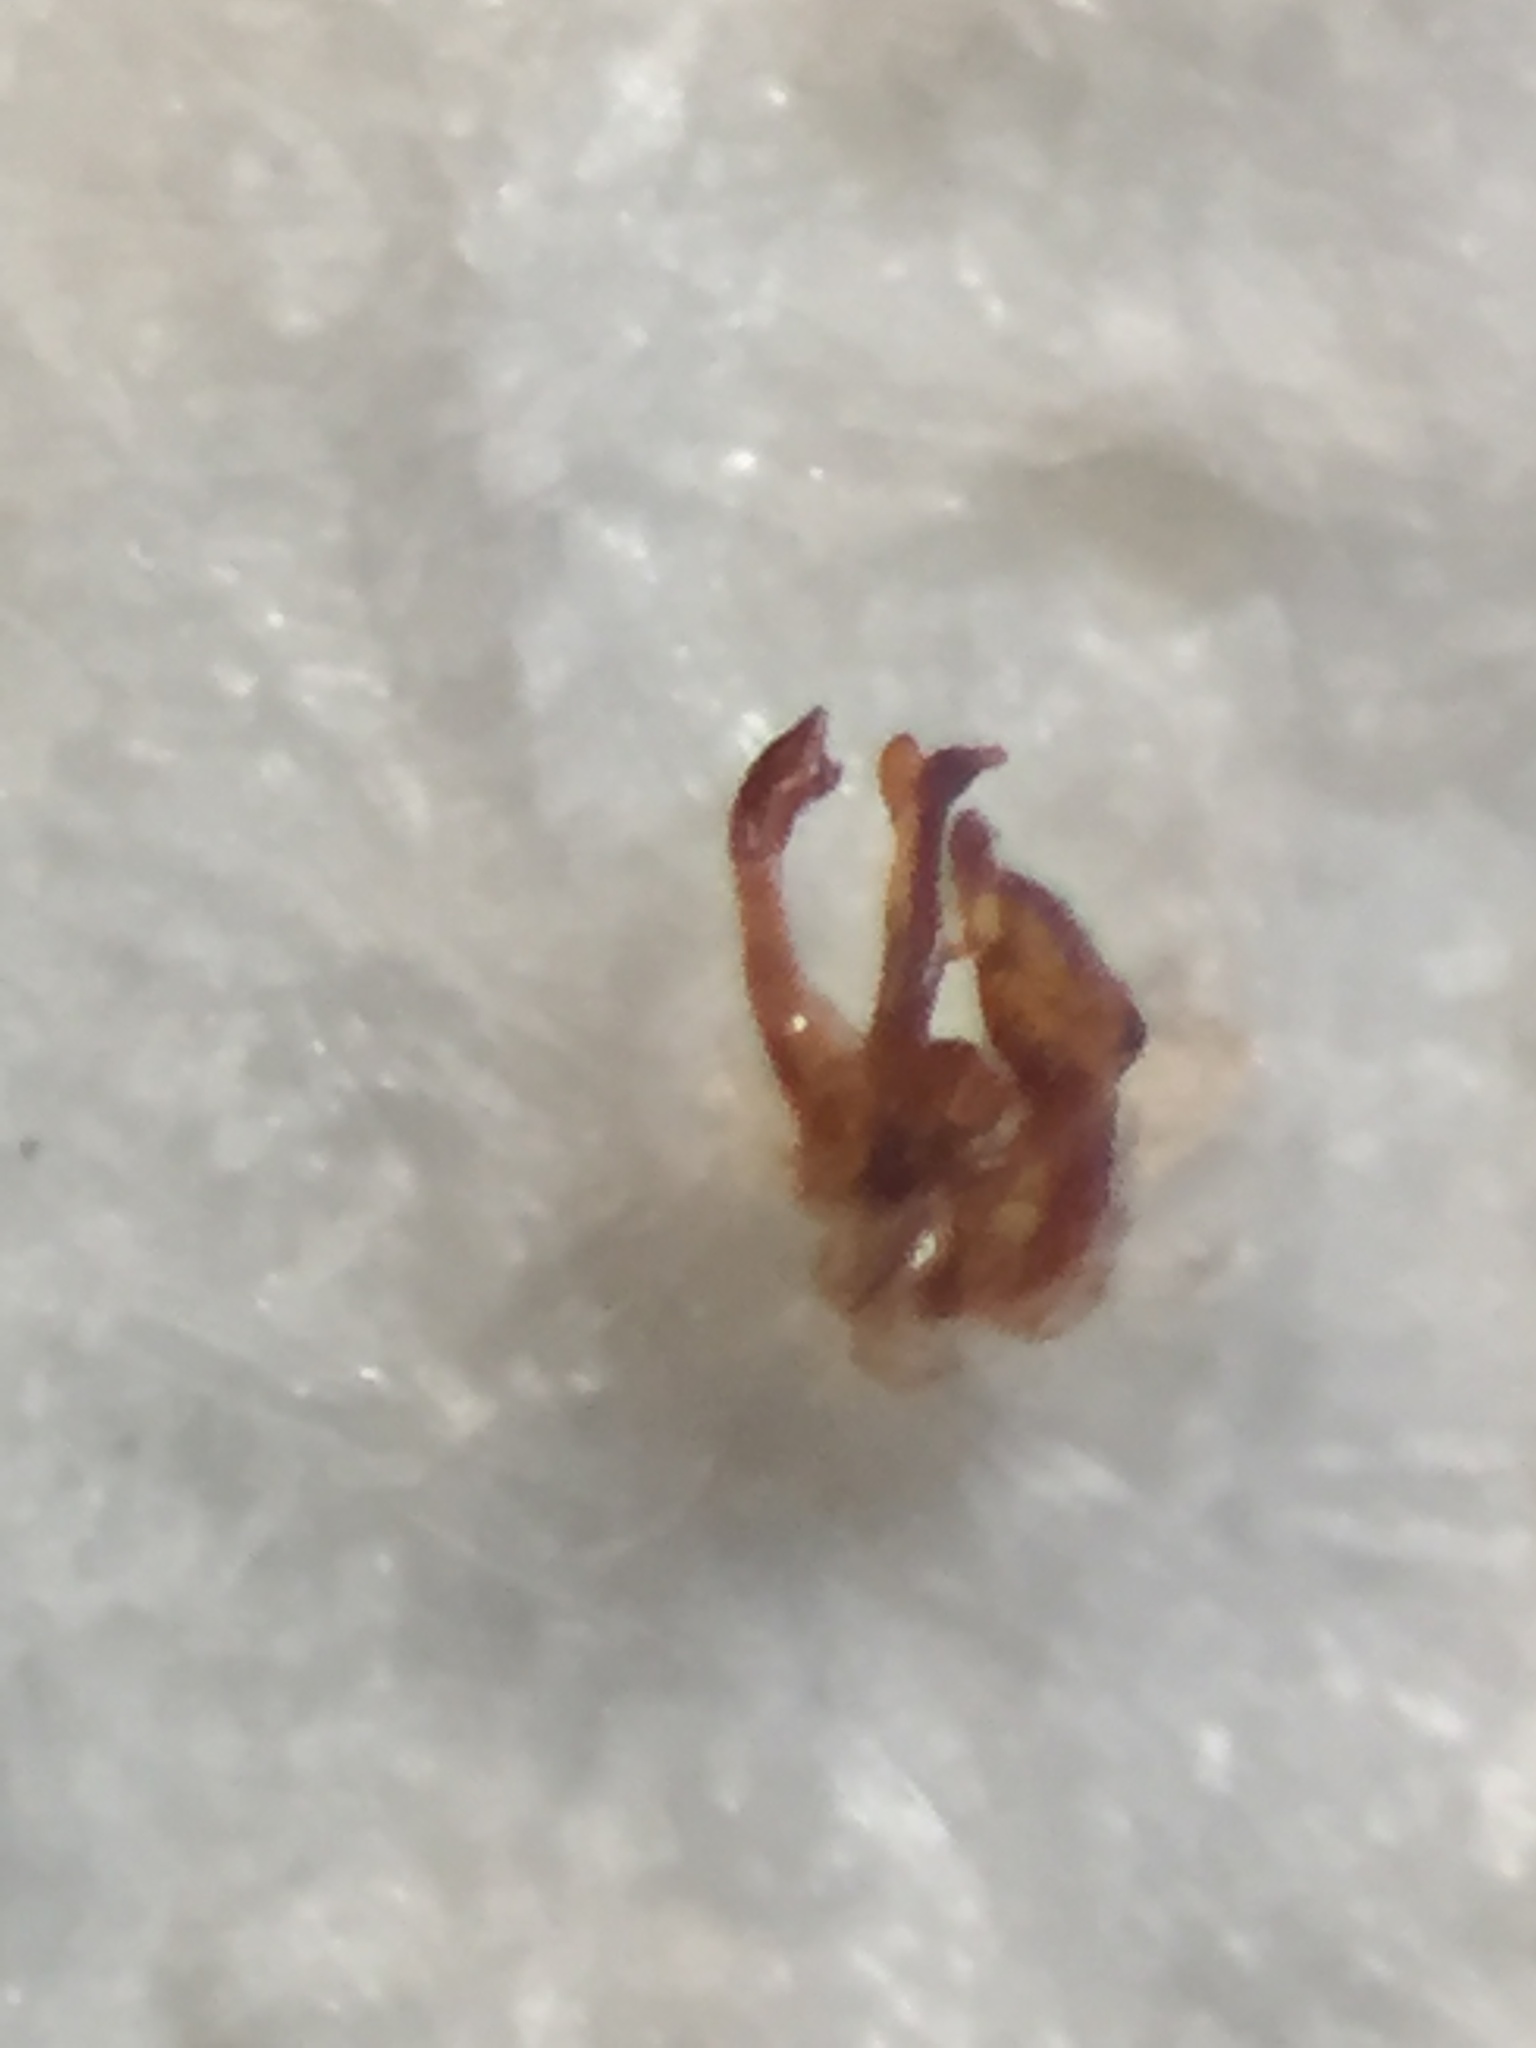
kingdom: Animalia
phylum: Arthropoda
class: Insecta
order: Coleoptera
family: Staphylinidae
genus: Sagola
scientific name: Sagola parva
